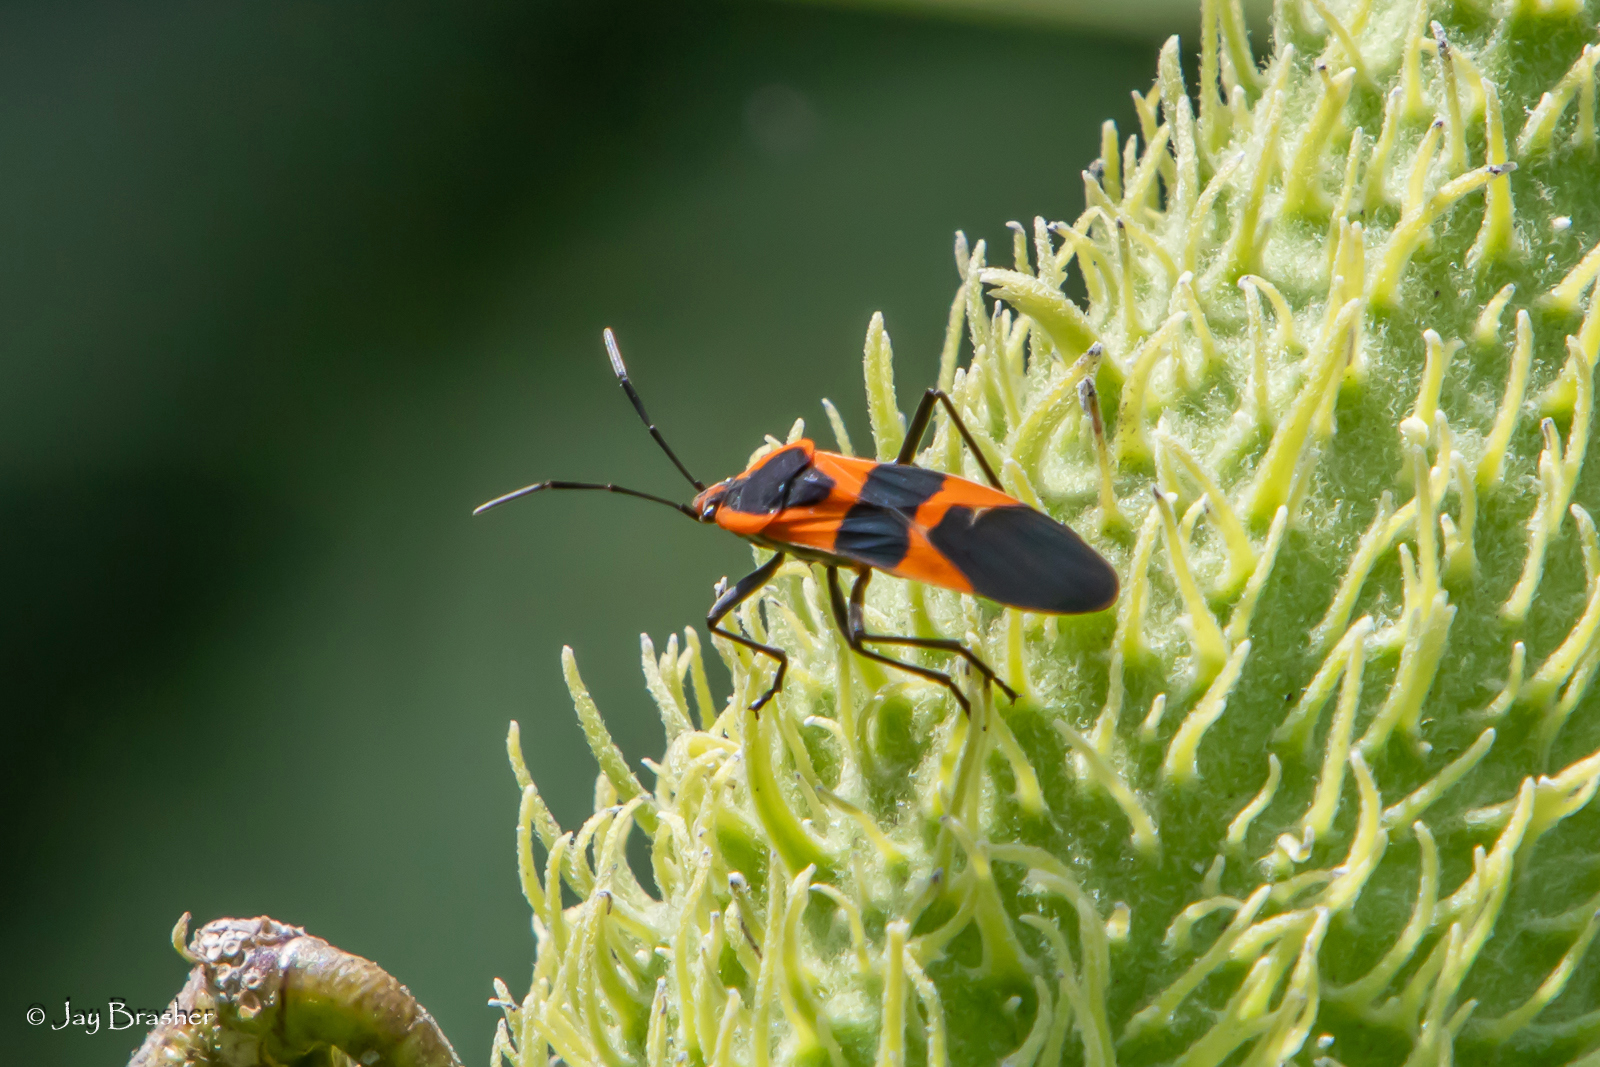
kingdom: Animalia
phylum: Arthropoda
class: Insecta
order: Hemiptera
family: Lygaeidae
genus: Oncopeltus
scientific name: Oncopeltus fasciatus
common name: Large milkweed bug
